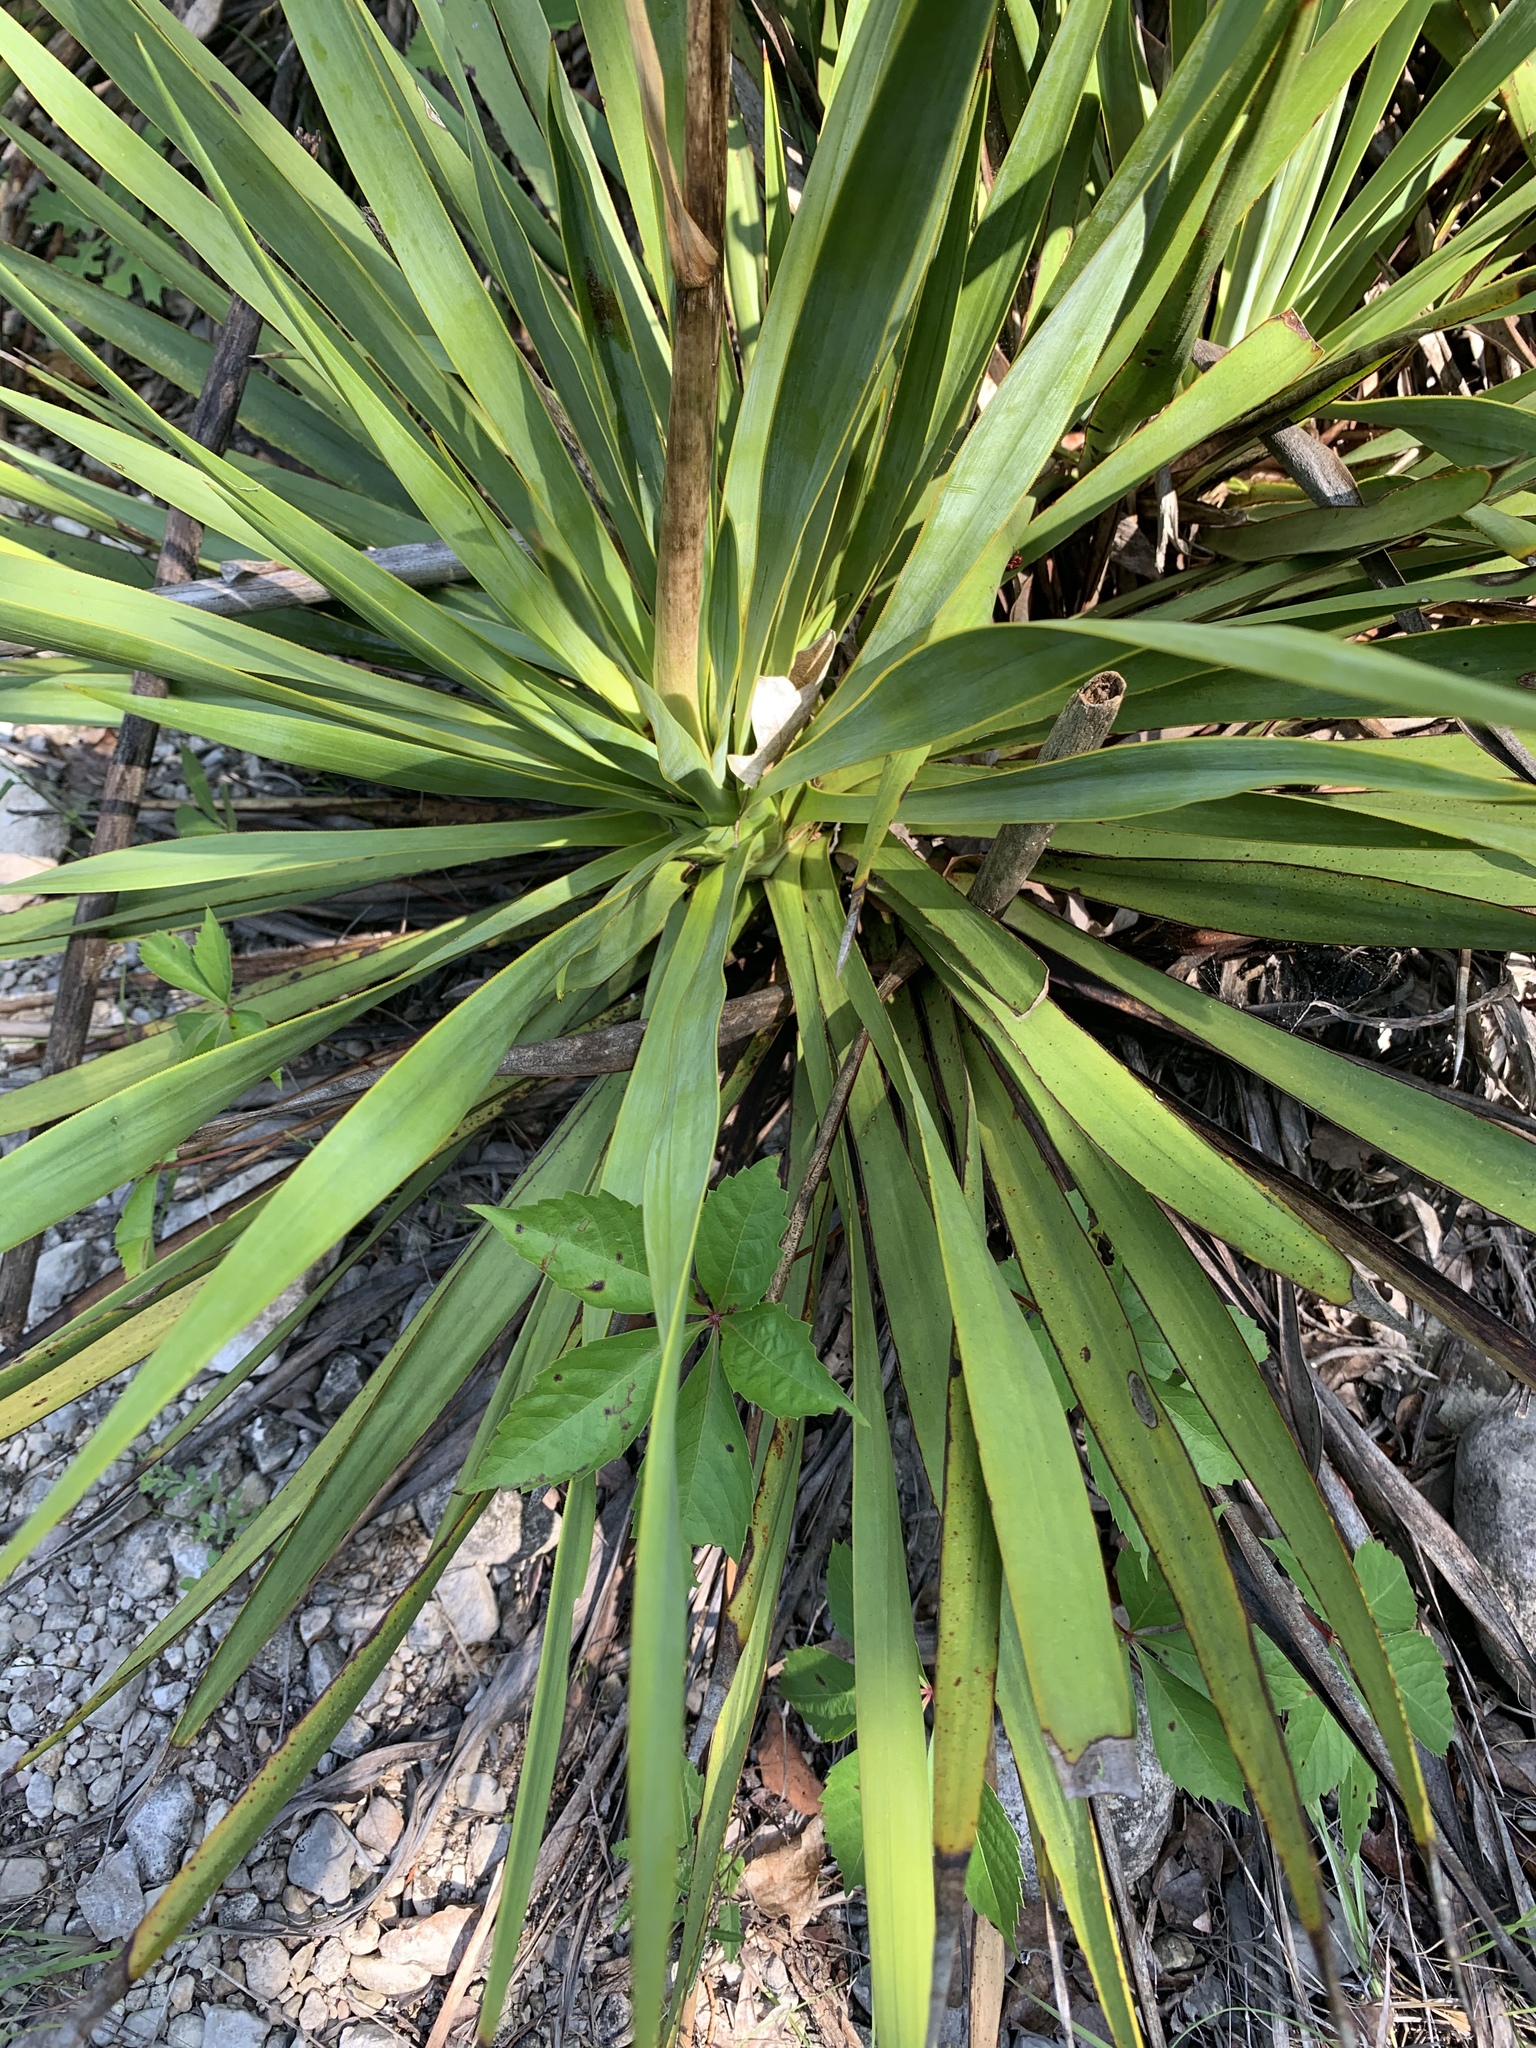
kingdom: Plantae
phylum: Tracheophyta
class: Liliopsida
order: Asparagales
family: Asparagaceae
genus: Yucca
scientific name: Yucca rupicola
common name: Twisted-leaf spanish-dagger
